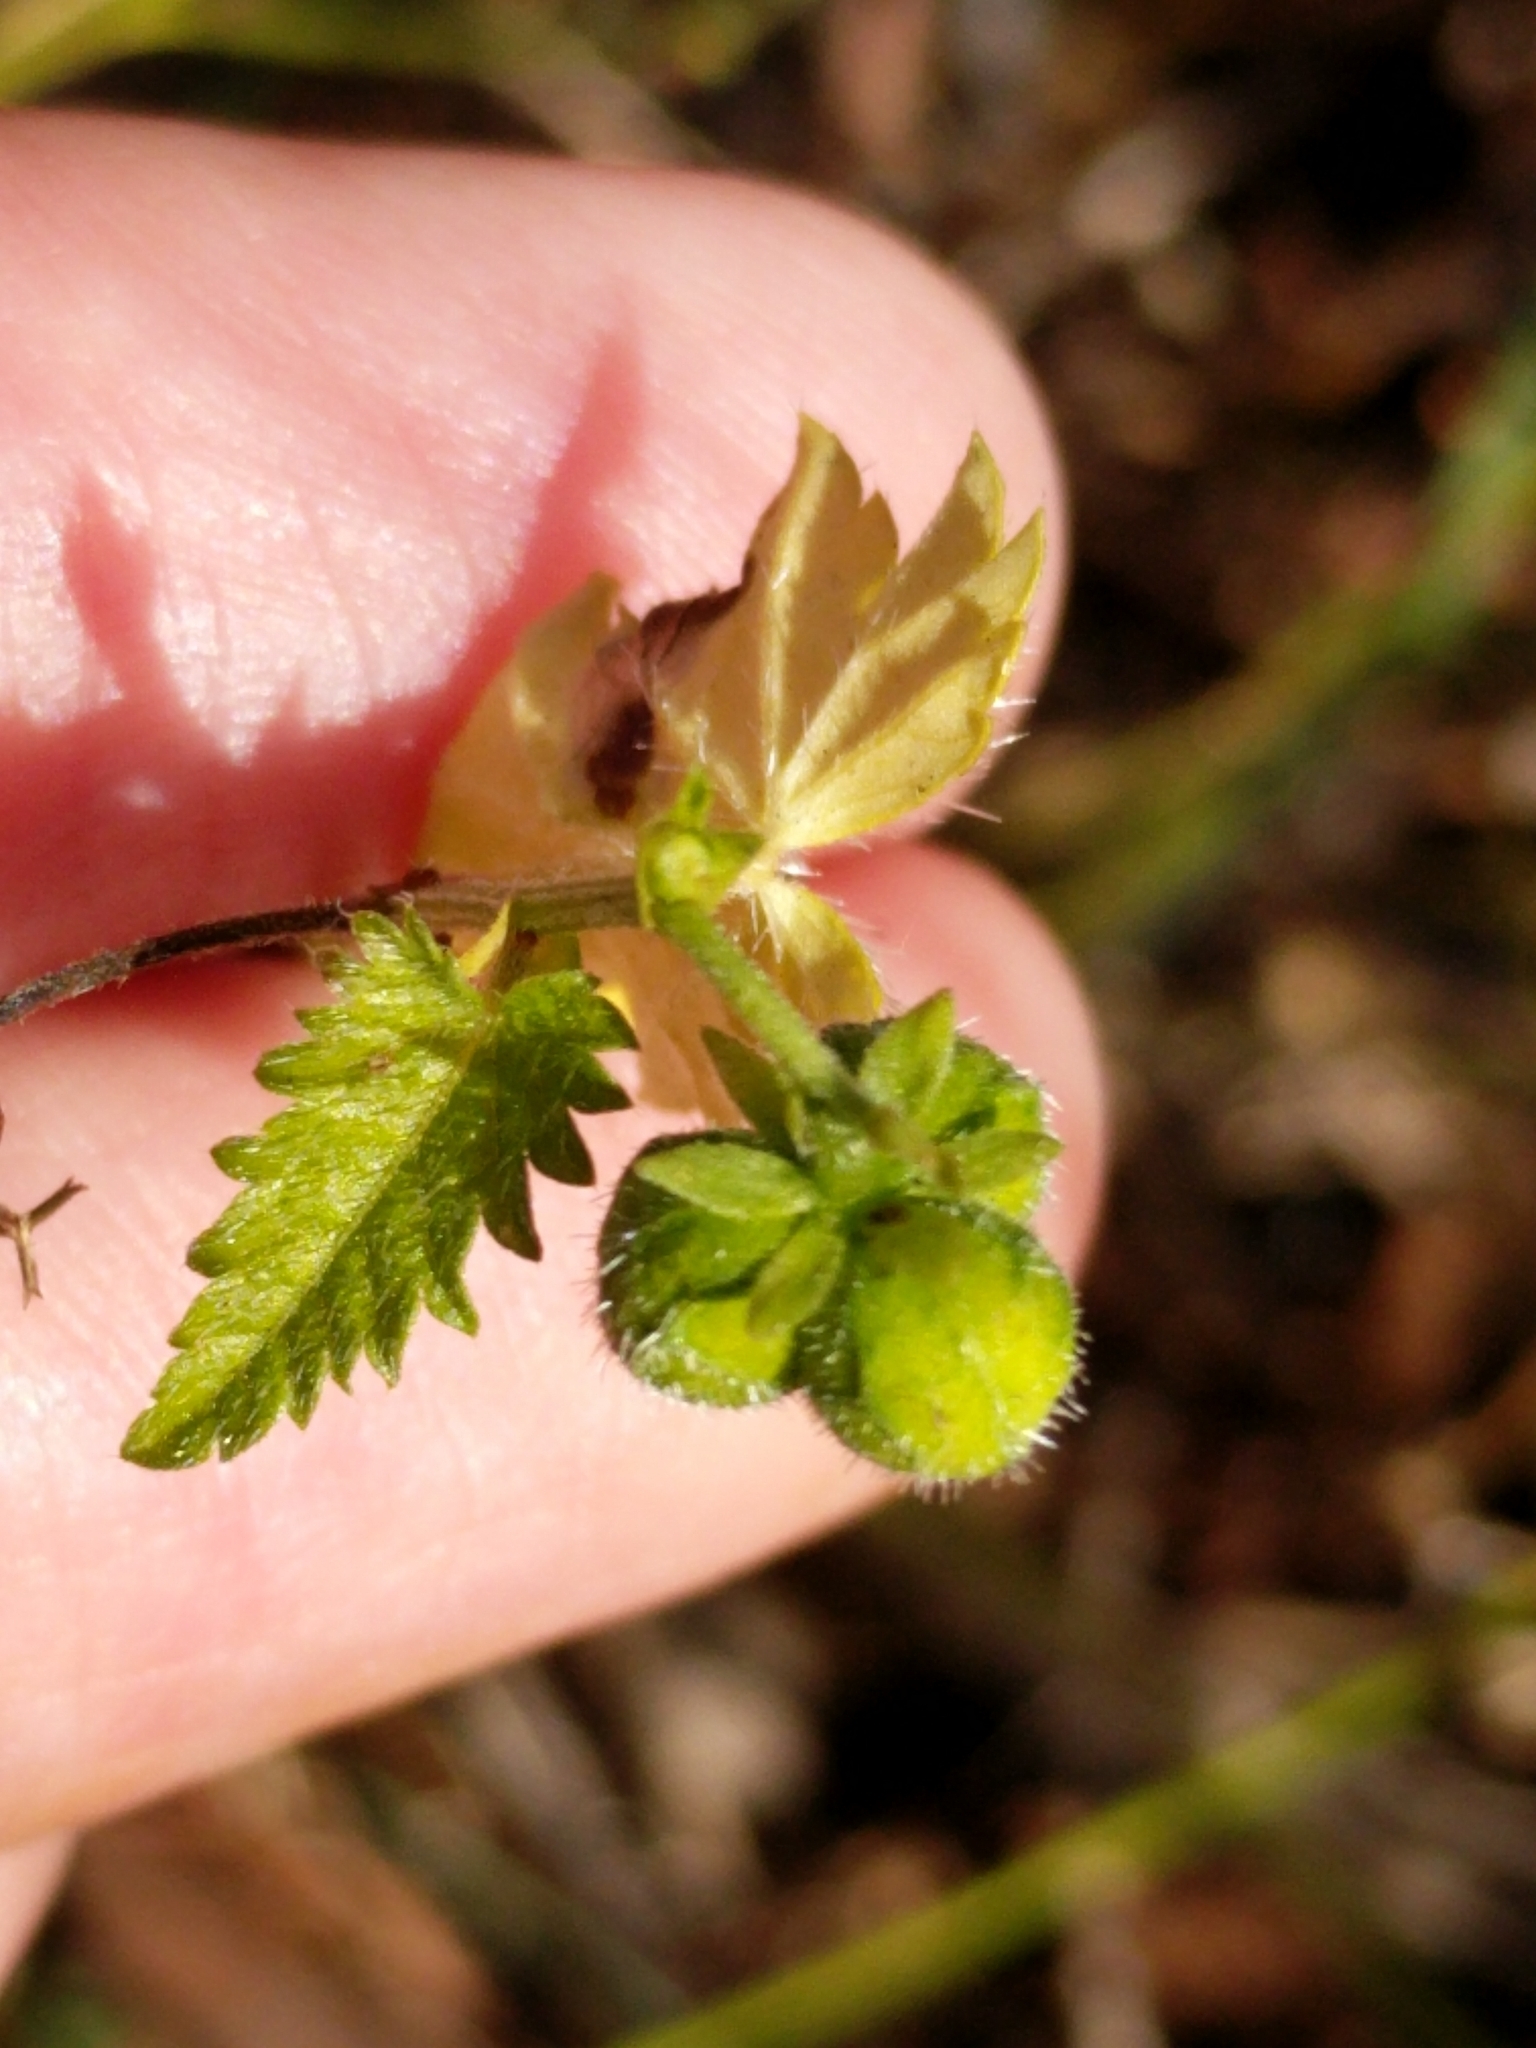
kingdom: Plantae
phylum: Tracheophyta
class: Magnoliopsida
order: Malpighiales
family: Euphorbiaceae
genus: Tragia
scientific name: Tragia brevispica
